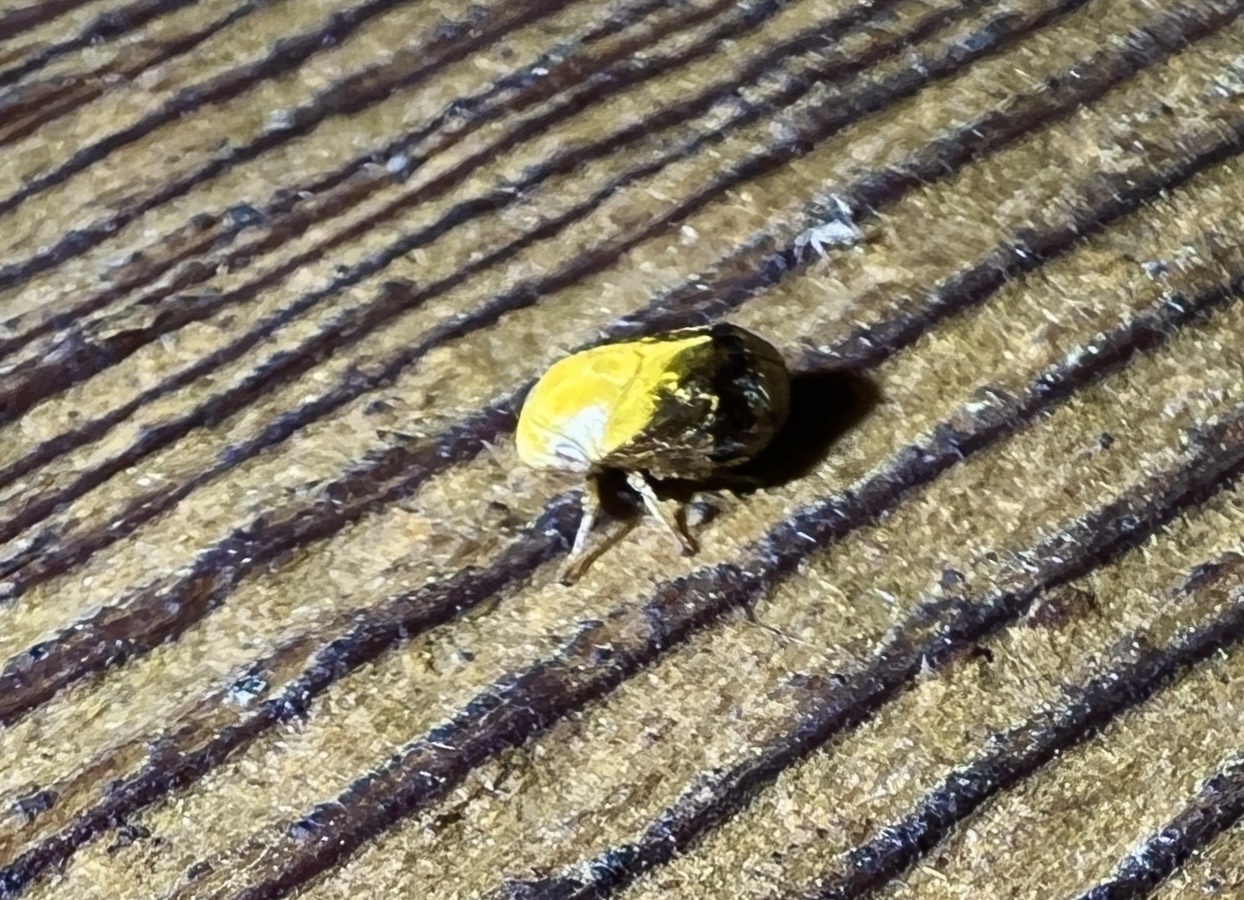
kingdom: Animalia
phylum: Arthropoda
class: Insecta
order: Hemiptera
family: Clastopteridae
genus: Clastoptera
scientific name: Clastoptera achatina
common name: Pecan spittlebug
